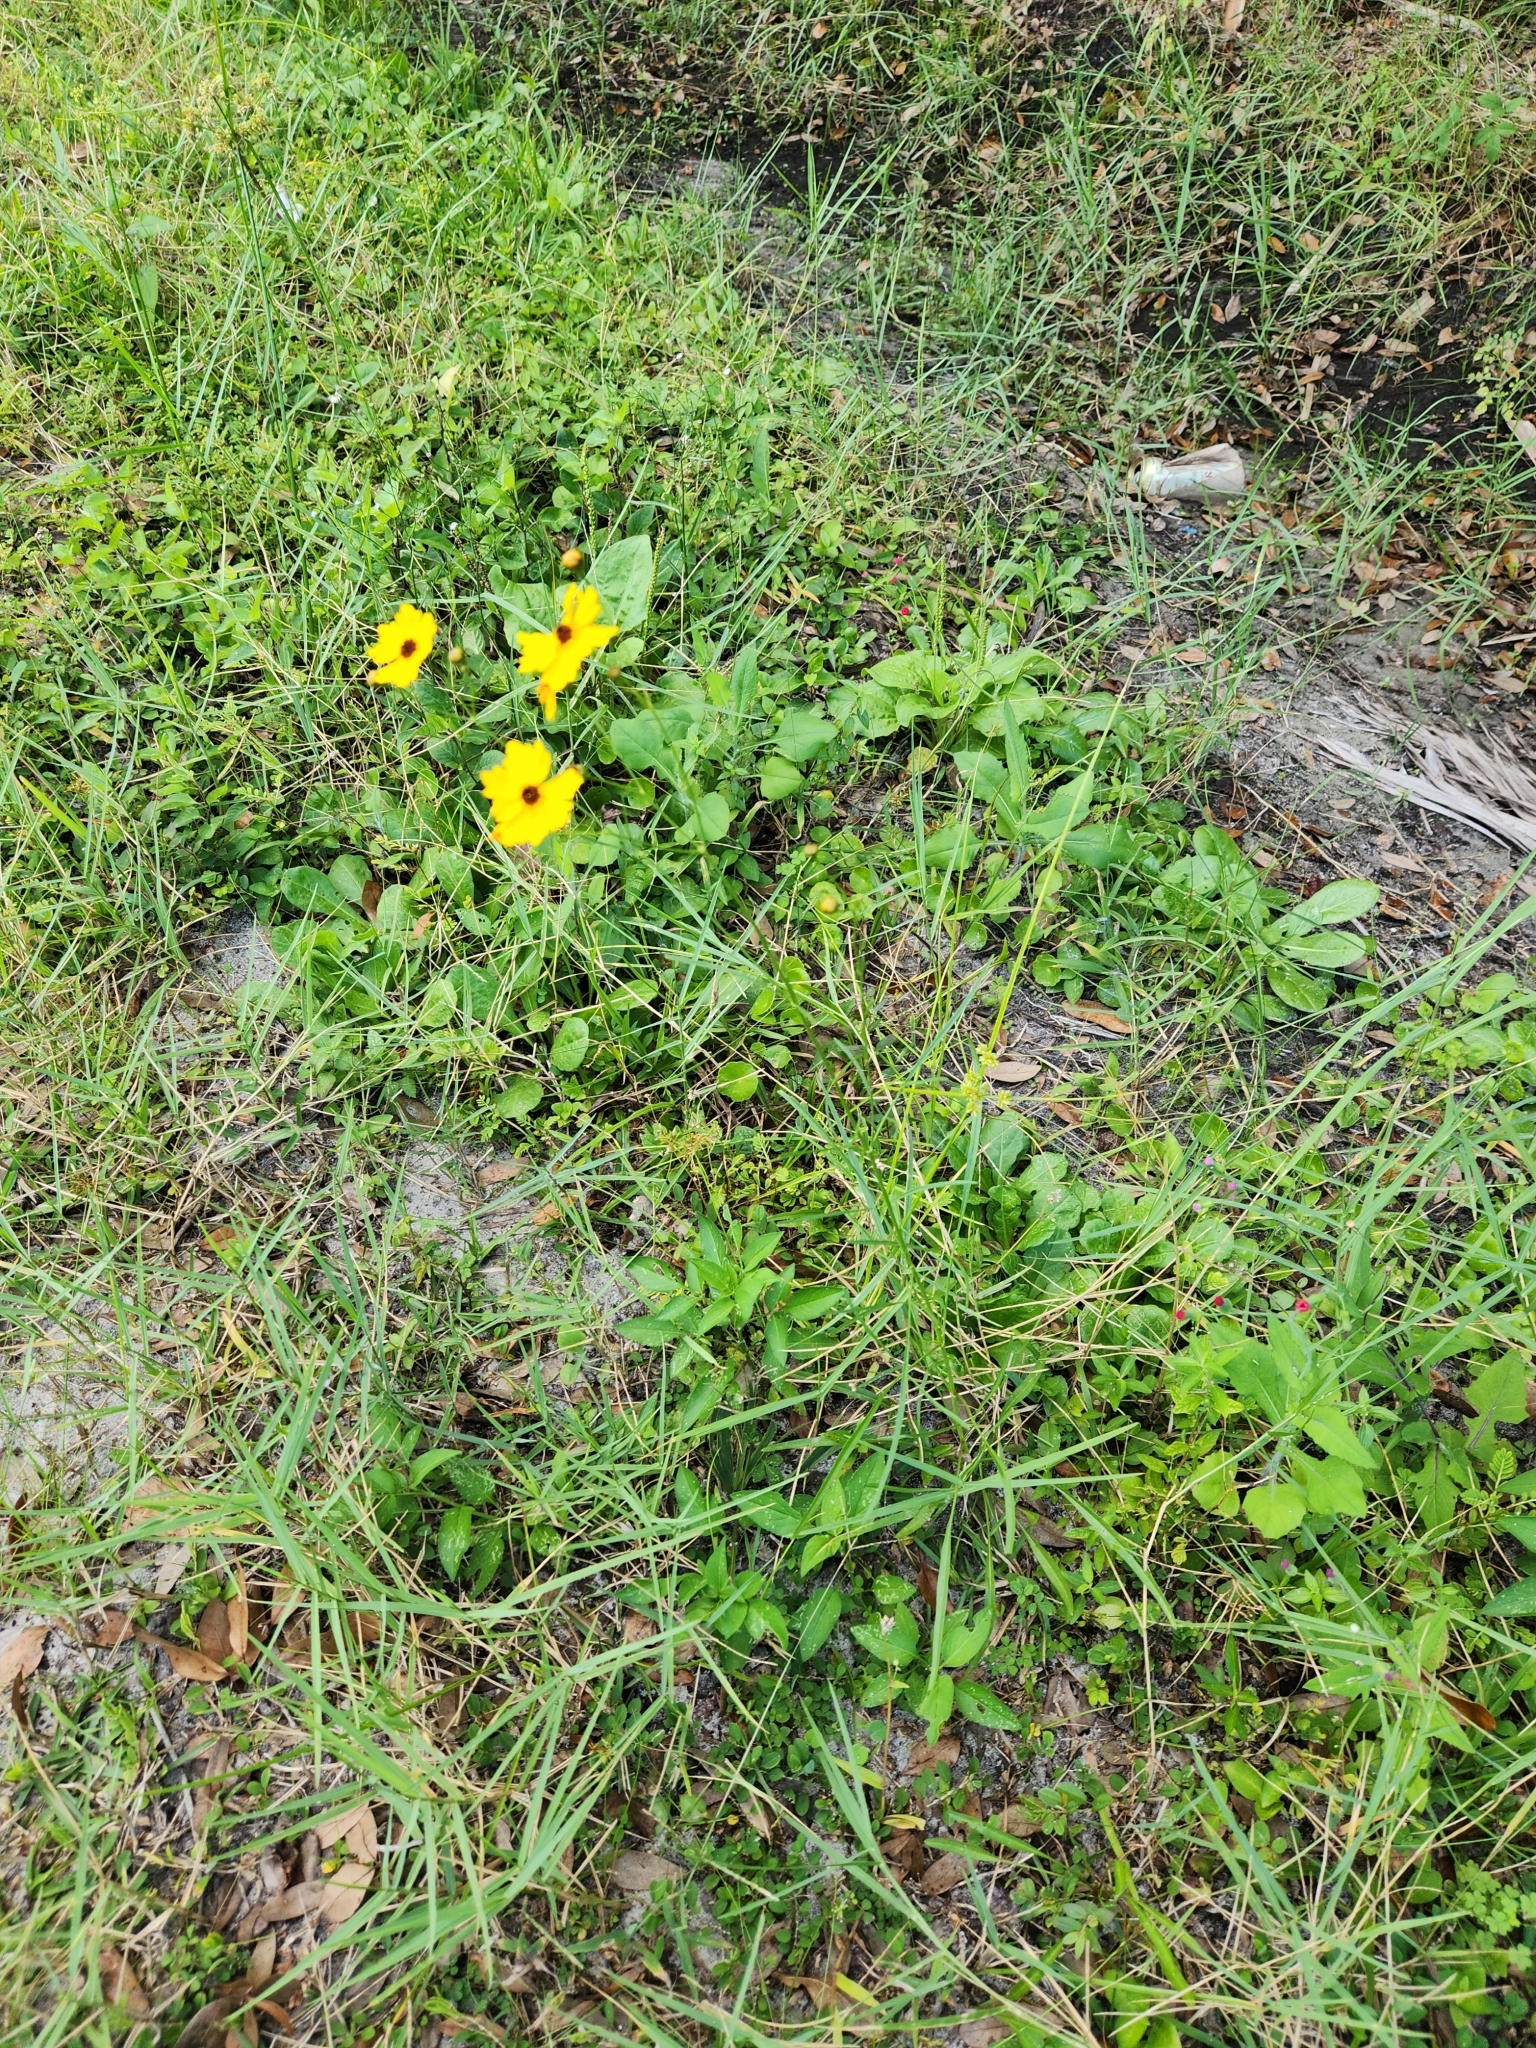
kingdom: Plantae
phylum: Tracheophyta
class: Magnoliopsida
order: Asterales
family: Asteraceae
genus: Coreopsis
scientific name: Coreopsis leavenworthii
